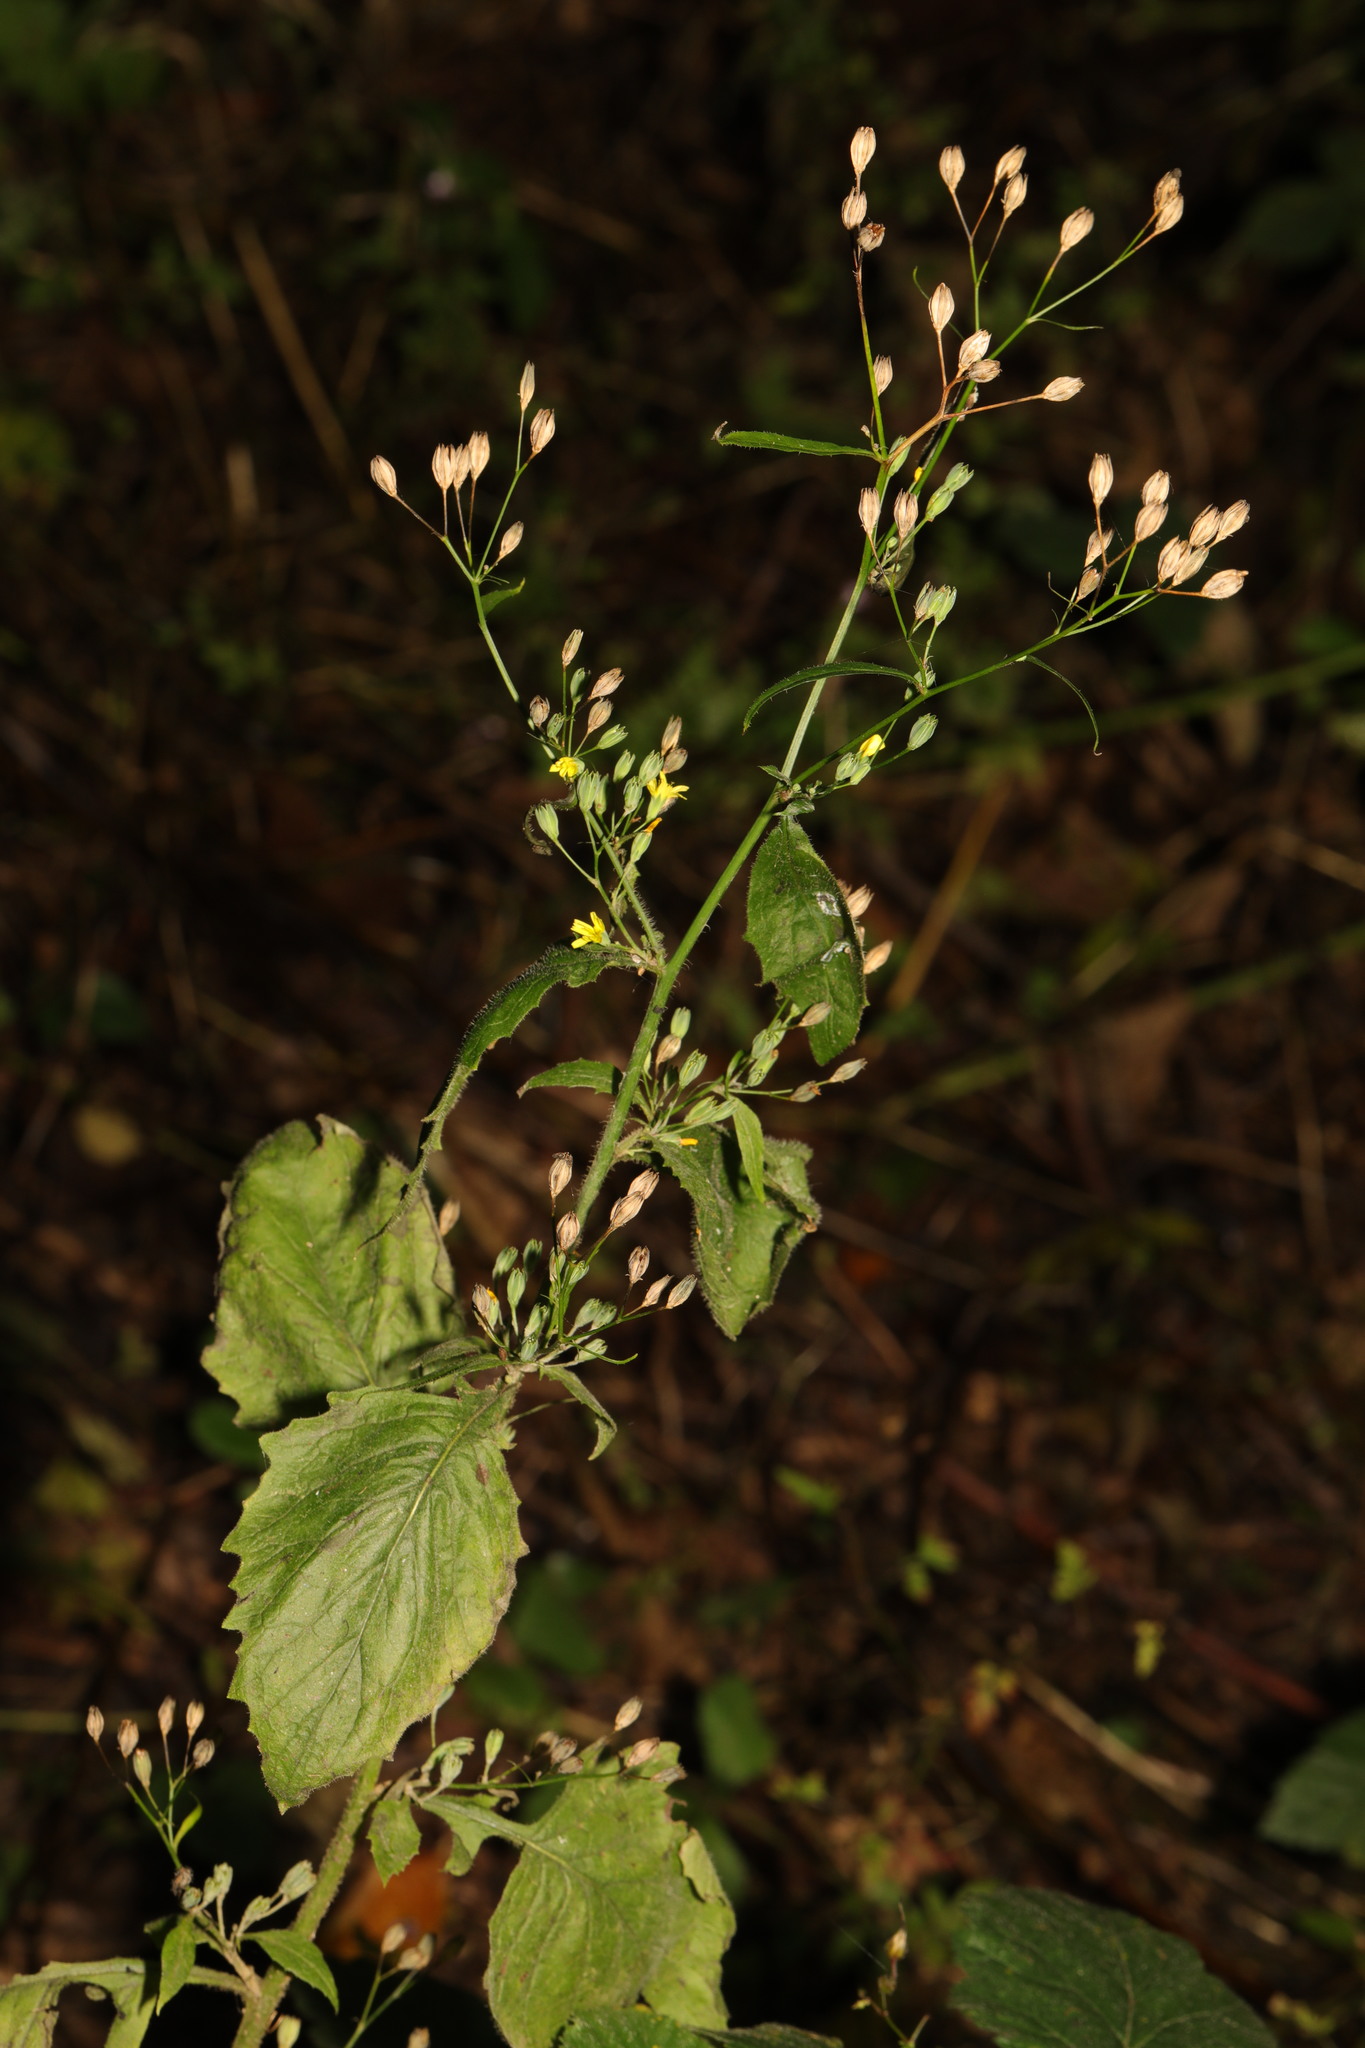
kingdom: Plantae
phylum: Tracheophyta
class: Magnoliopsida
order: Asterales
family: Asteraceae
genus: Lapsana
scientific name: Lapsana communis
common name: Nipplewort
